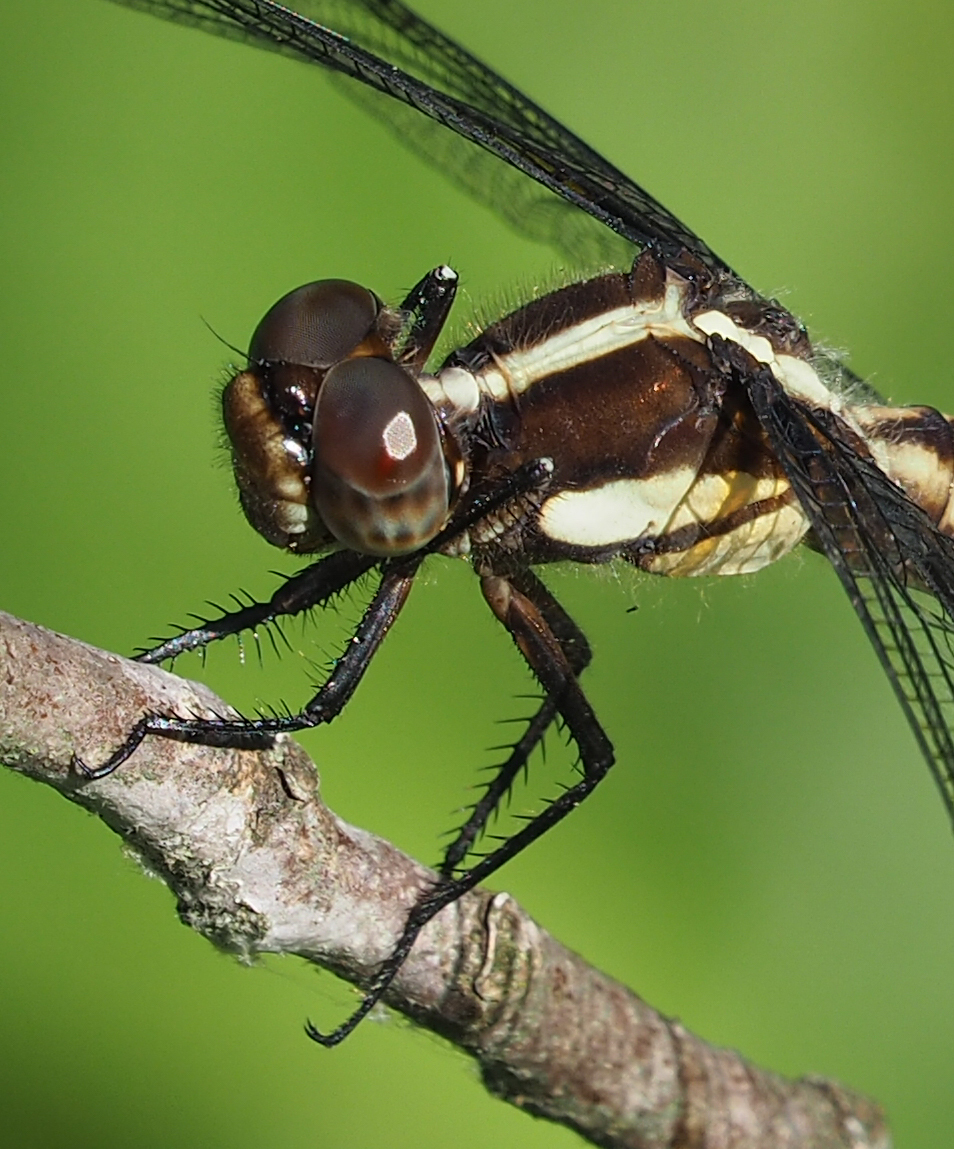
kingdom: Animalia
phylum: Arthropoda
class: Insecta
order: Odonata
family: Libellulidae
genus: Libellula
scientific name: Libellula cyanea
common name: Spangled skimmer
